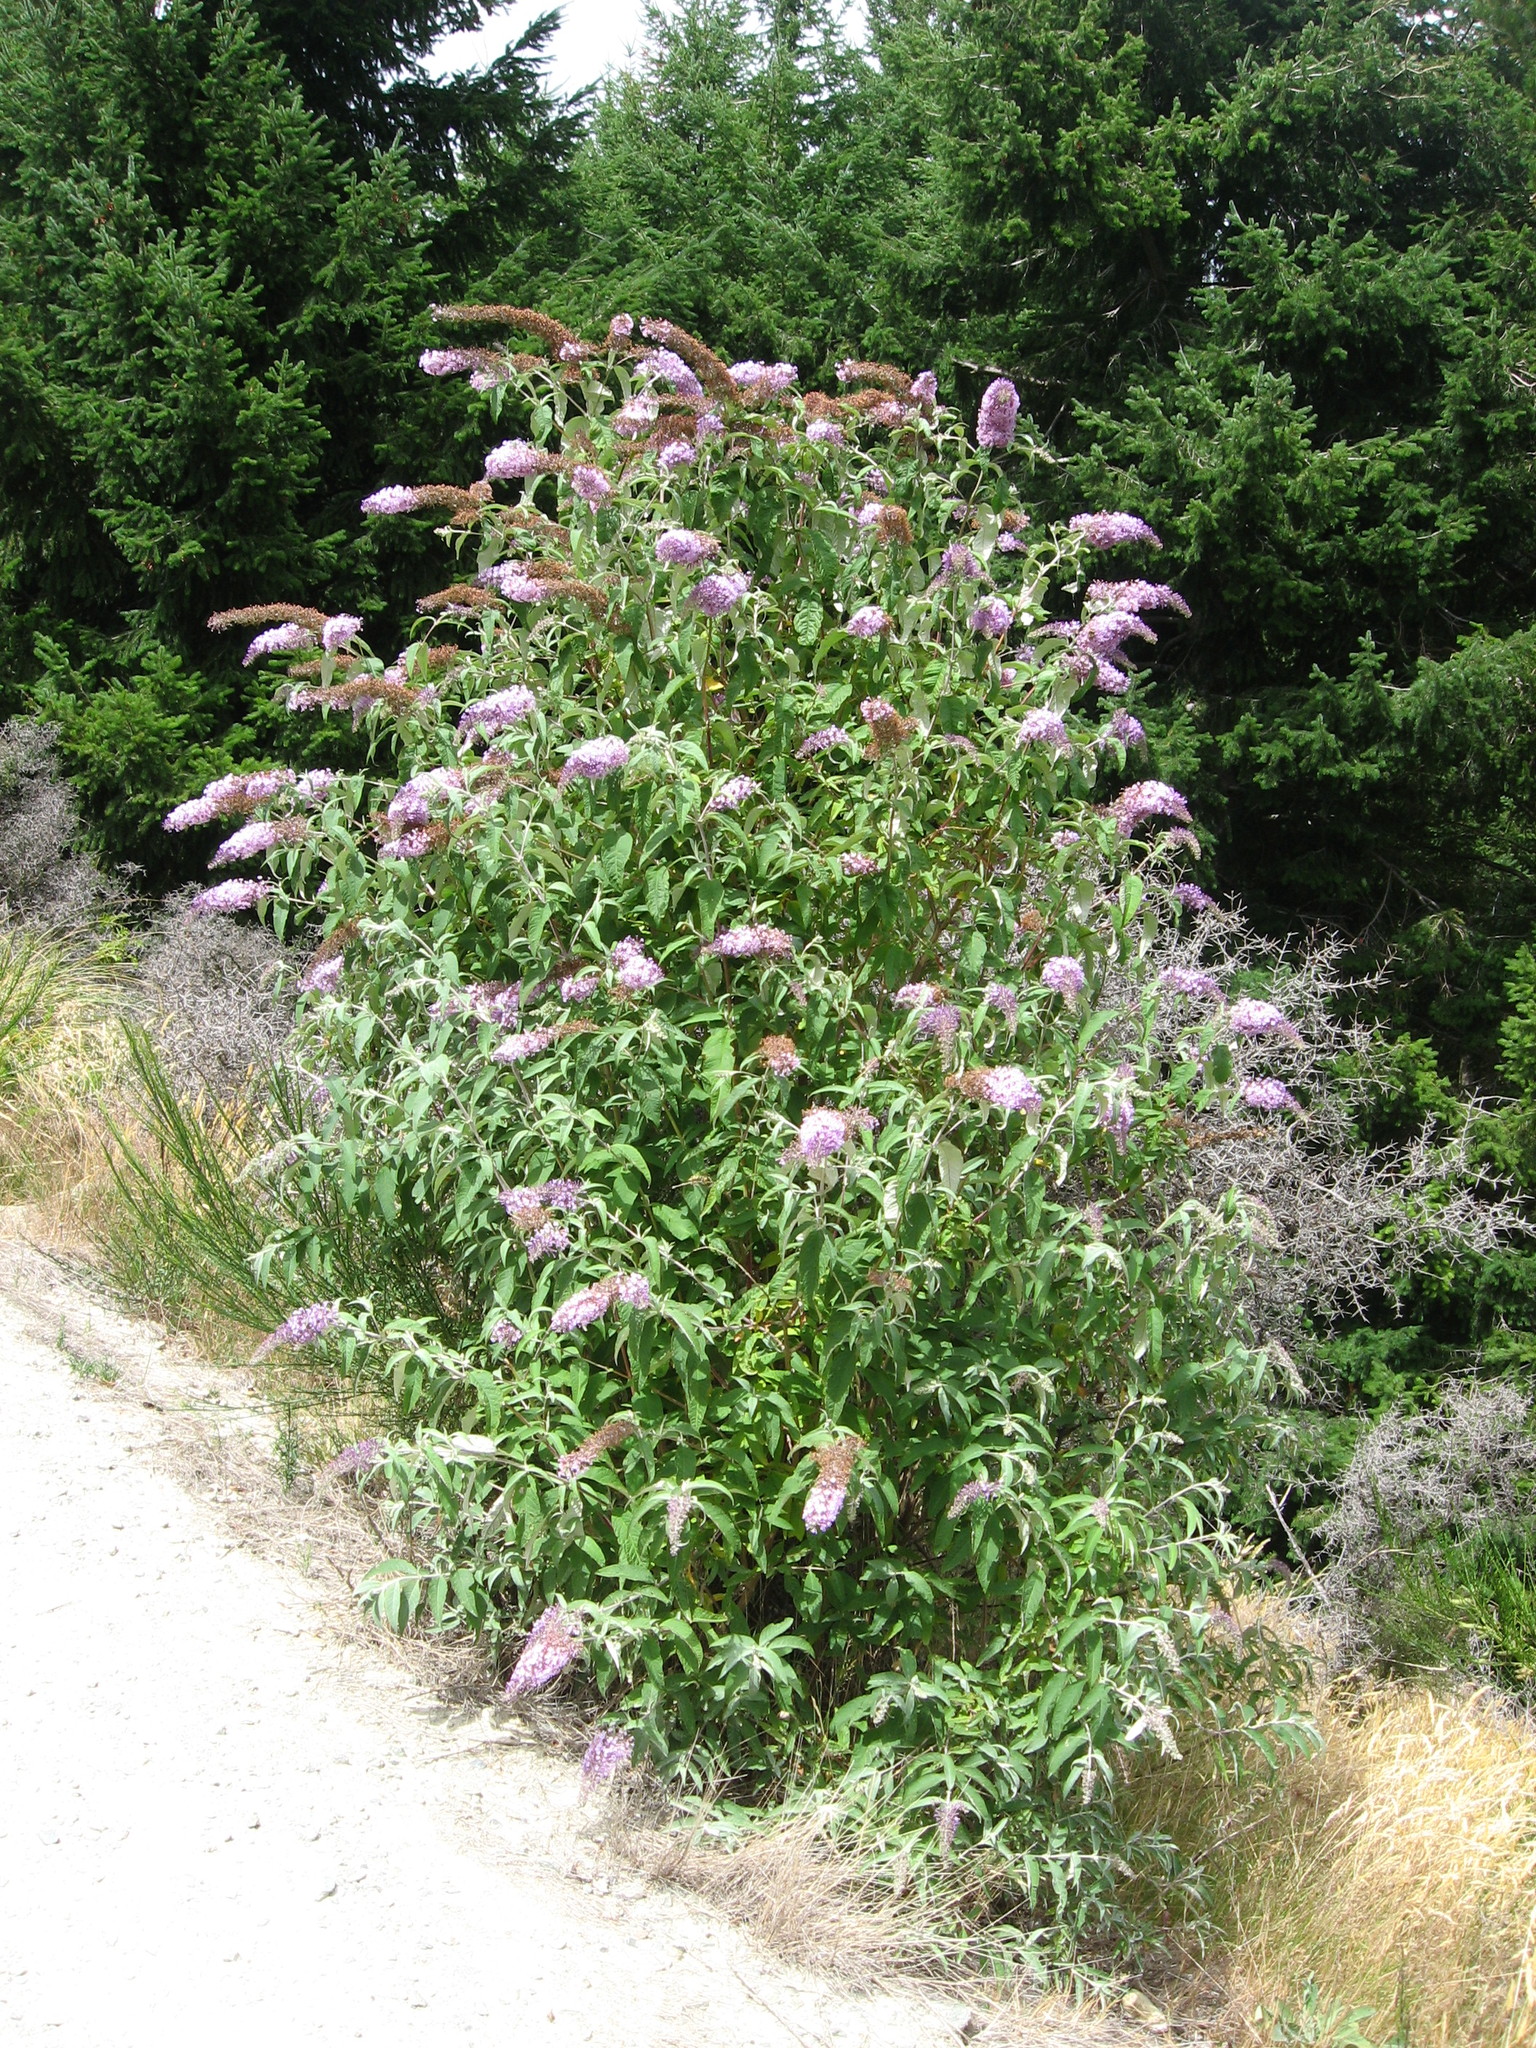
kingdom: Plantae
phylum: Tracheophyta
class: Magnoliopsida
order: Lamiales
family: Scrophulariaceae
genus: Buddleja
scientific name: Buddleja davidii
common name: Butterfly-bush
